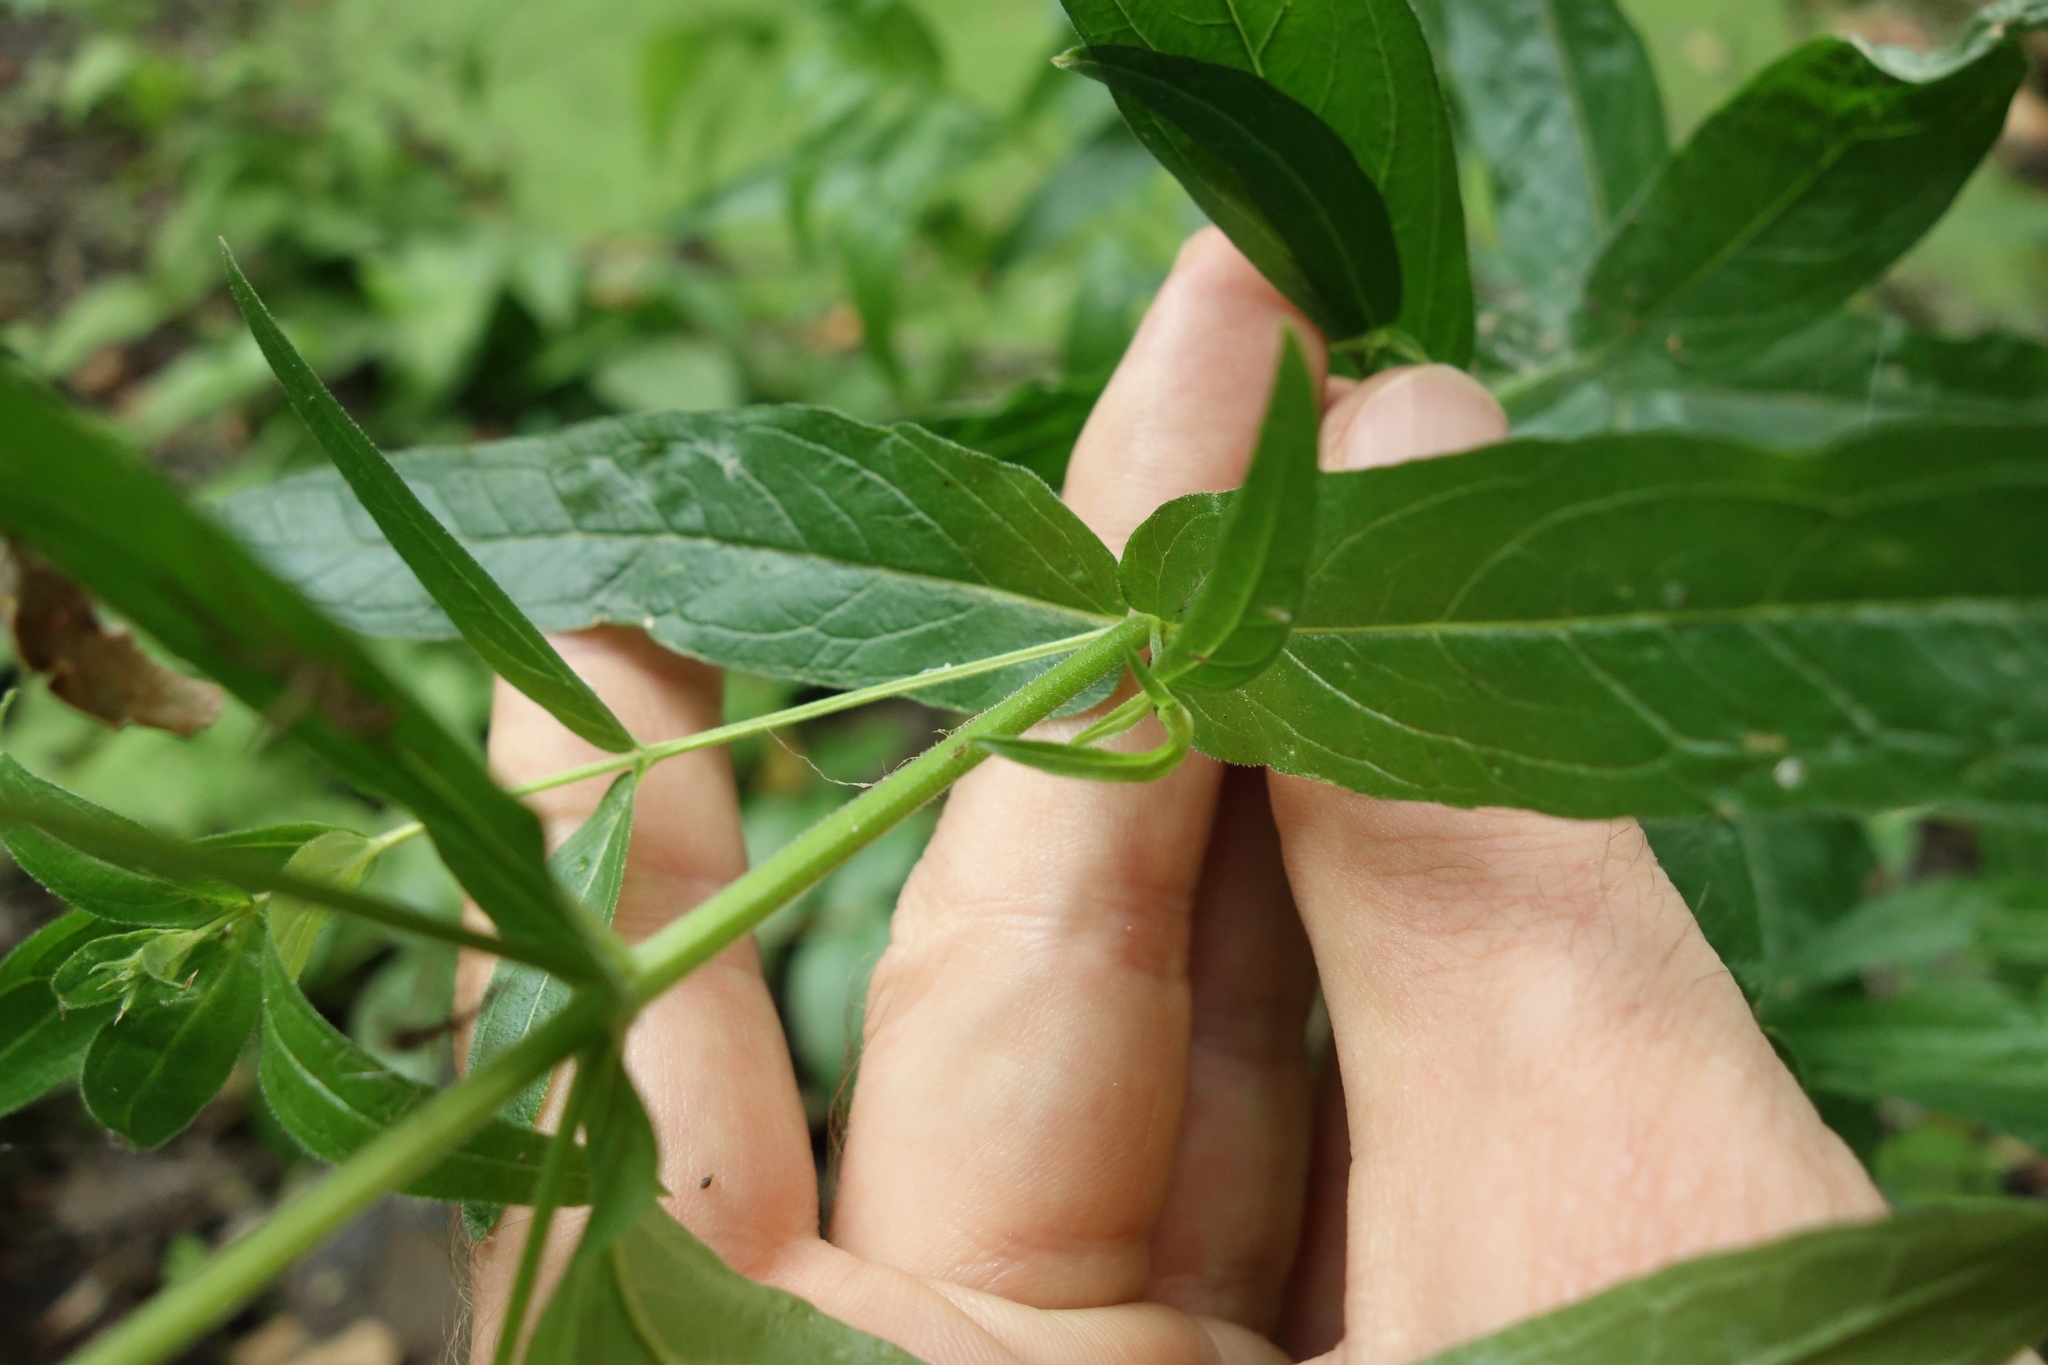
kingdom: Plantae
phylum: Tracheophyta
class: Magnoliopsida
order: Myrtales
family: Lythraceae
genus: Lythrum
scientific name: Lythrum salicaria
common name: Purple loosestrife
